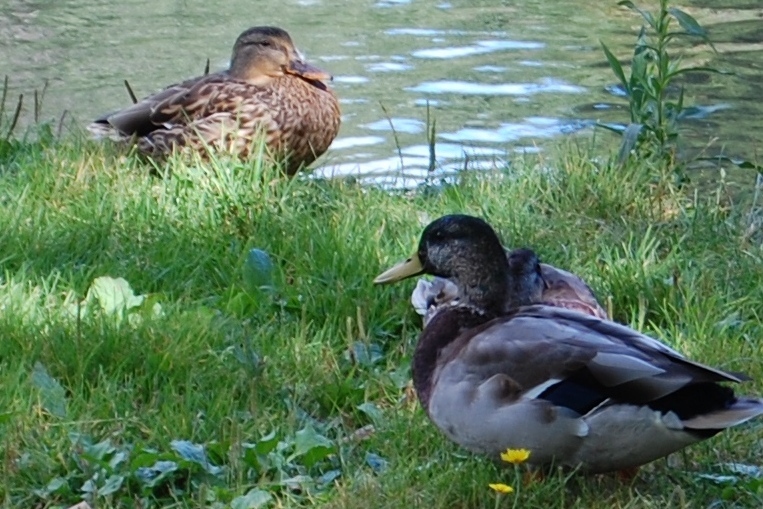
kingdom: Animalia
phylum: Chordata
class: Aves
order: Anseriformes
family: Anatidae
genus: Anas
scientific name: Anas platyrhynchos
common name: Mallard
